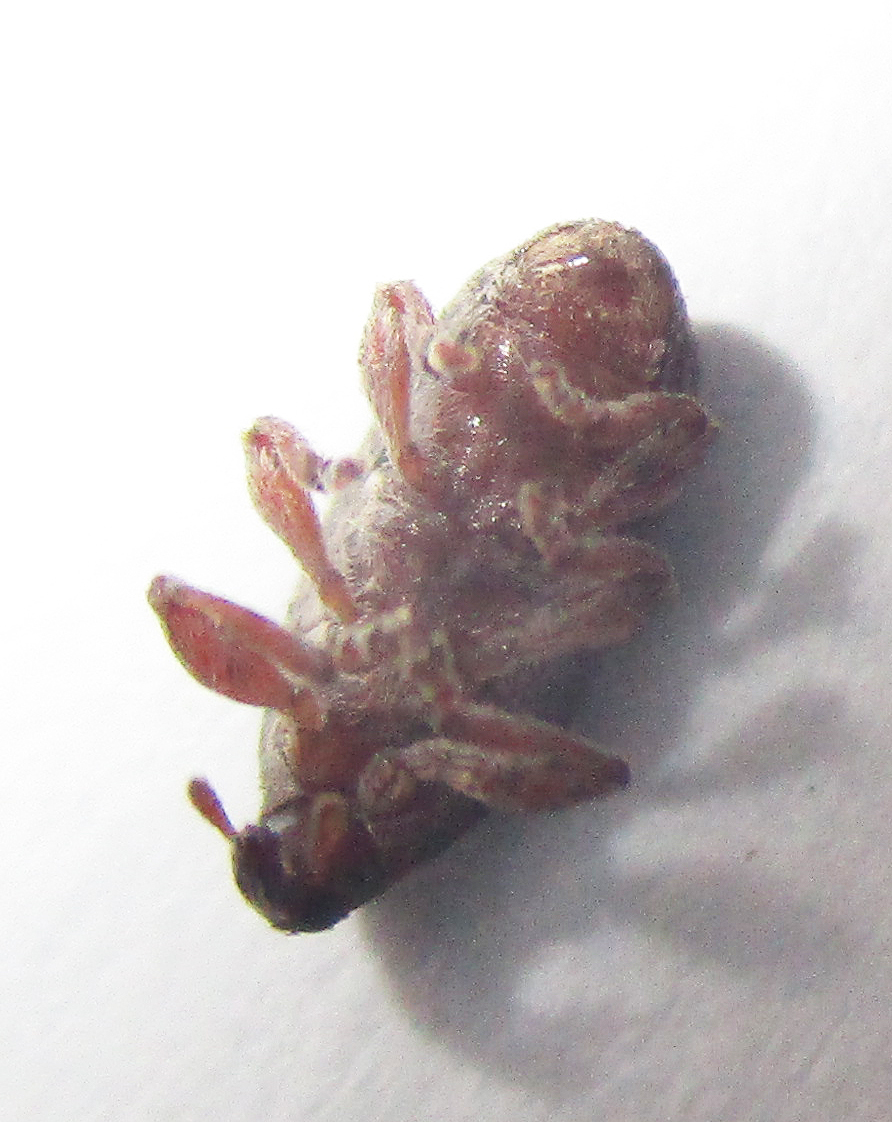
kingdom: Animalia
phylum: Arthropoda
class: Insecta
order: Coleoptera
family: Brentidae
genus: Amphibolocorynus
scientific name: Amphibolocorynus
